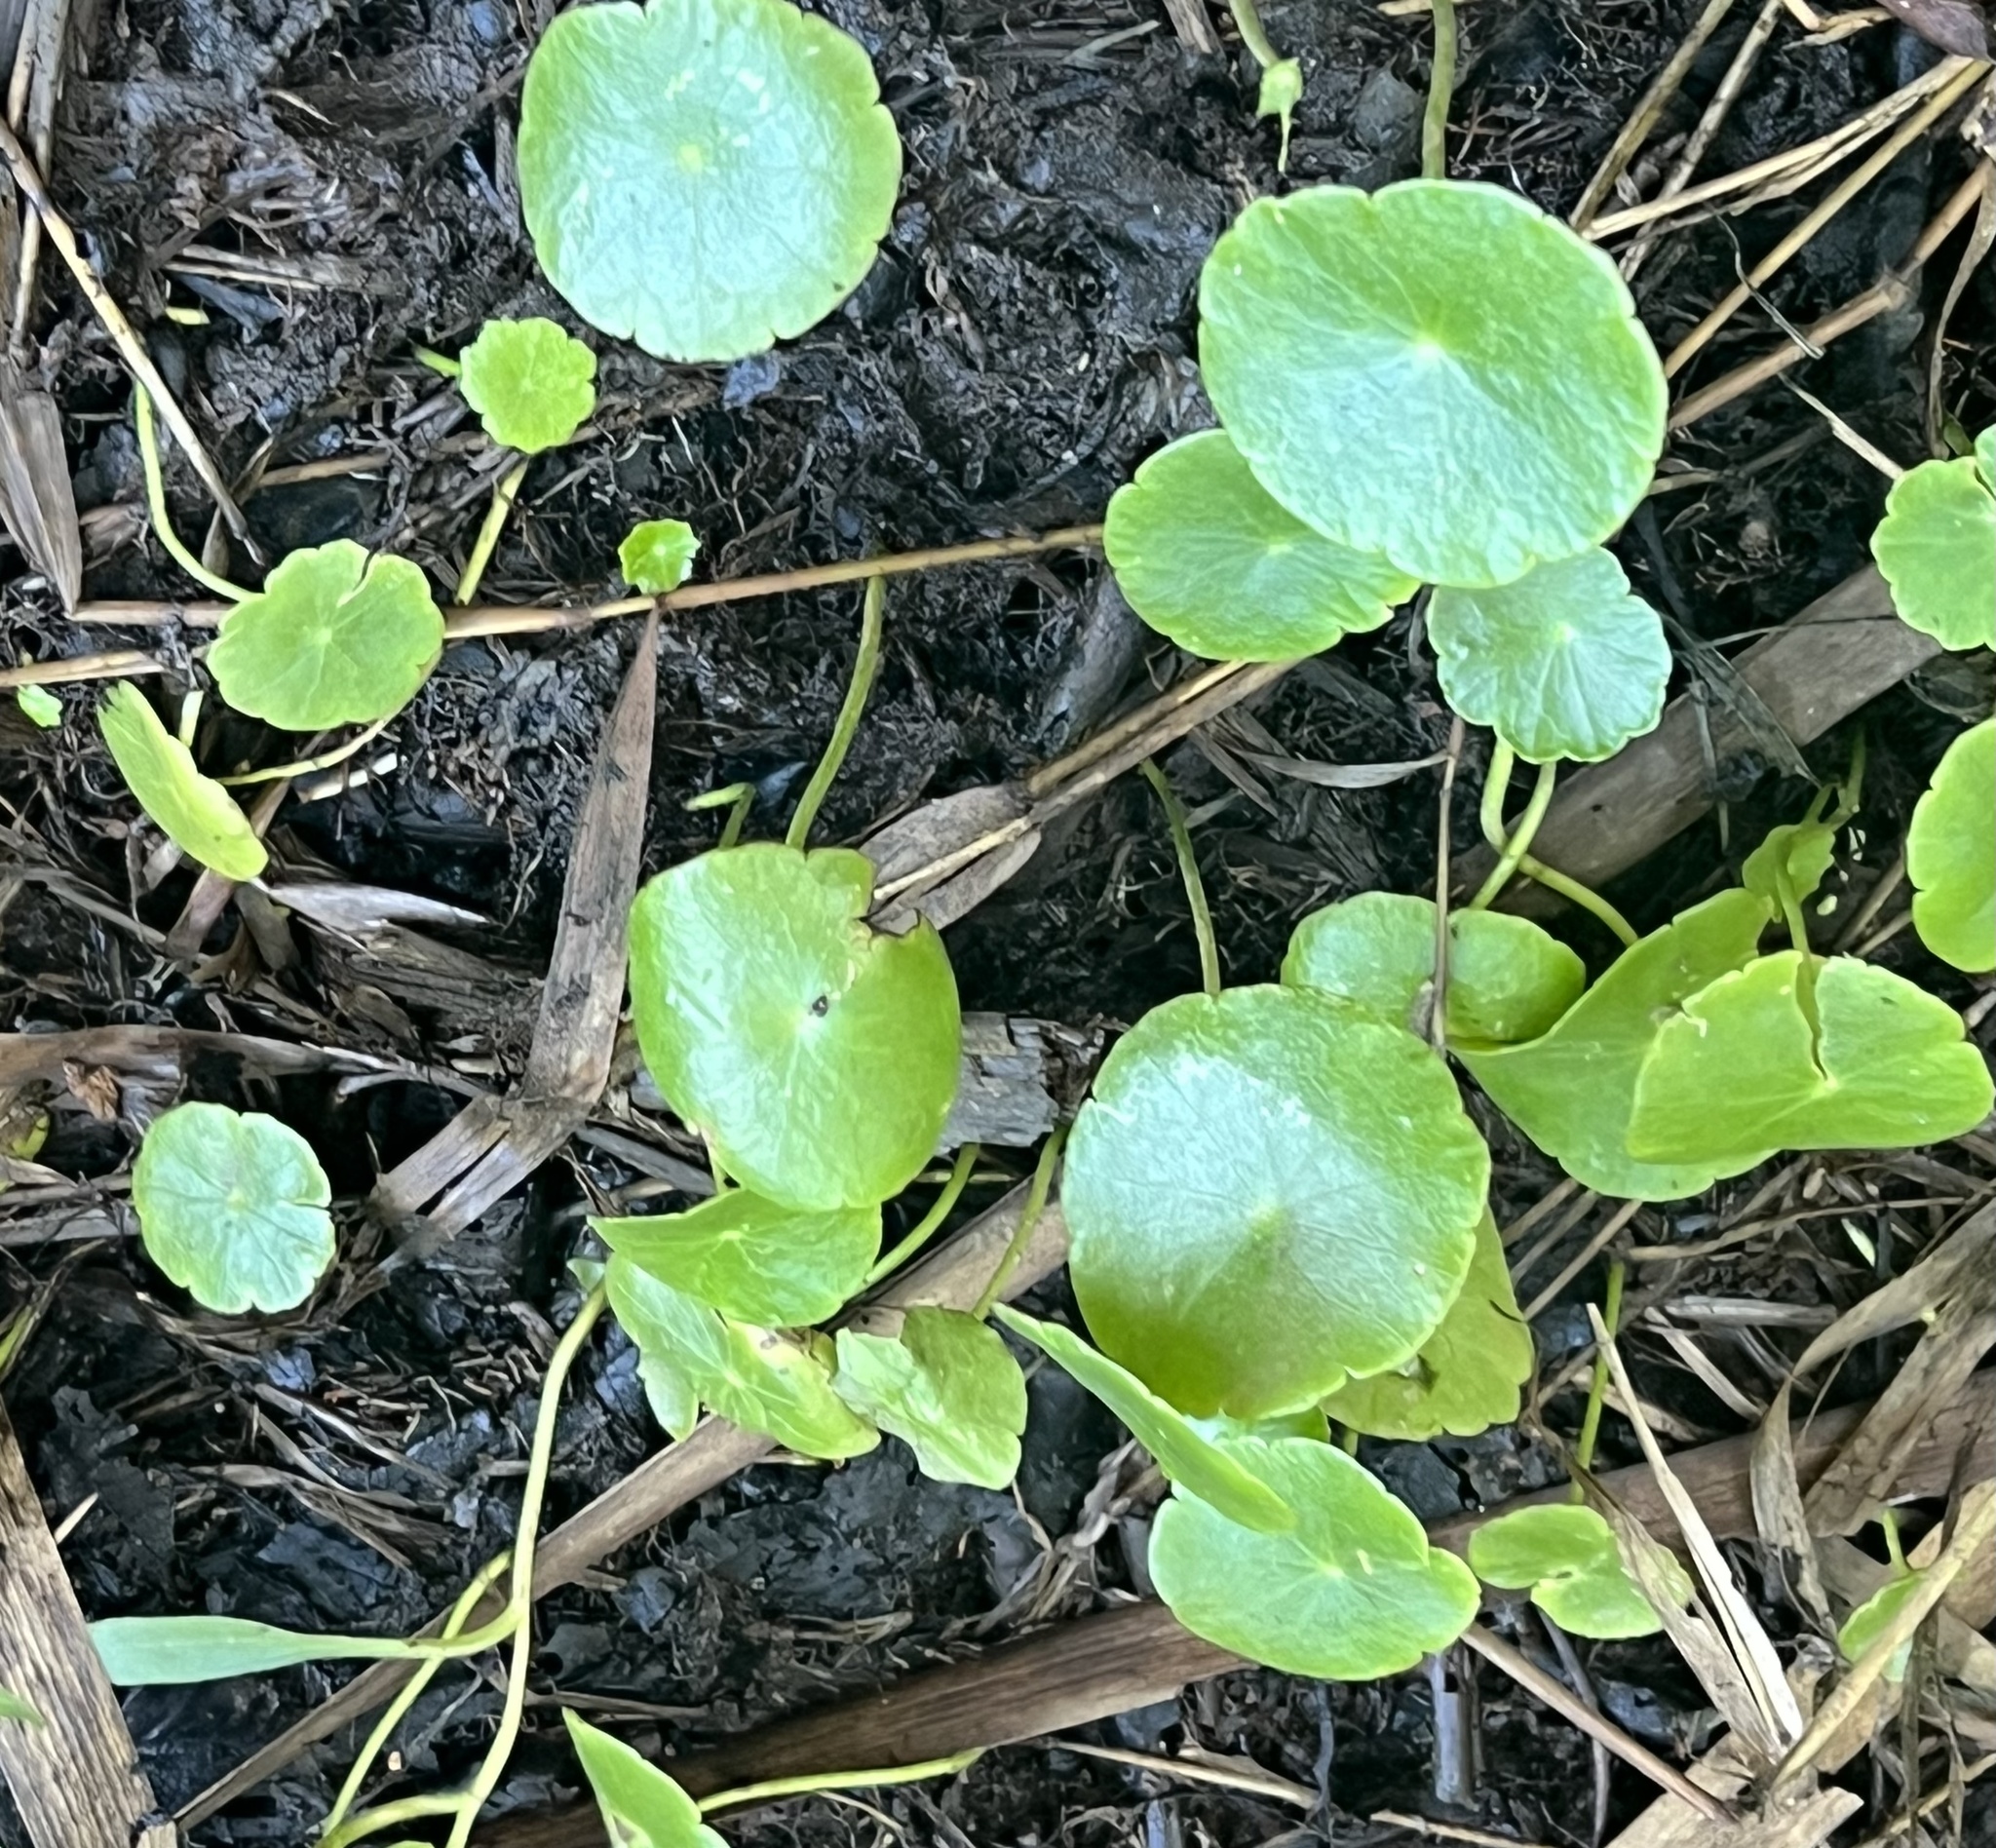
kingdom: Plantae
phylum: Tracheophyta
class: Magnoliopsida
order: Apiales
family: Araliaceae
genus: Hydrocotyle
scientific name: Hydrocotyle verticillata
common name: Whorled marshpennywort
